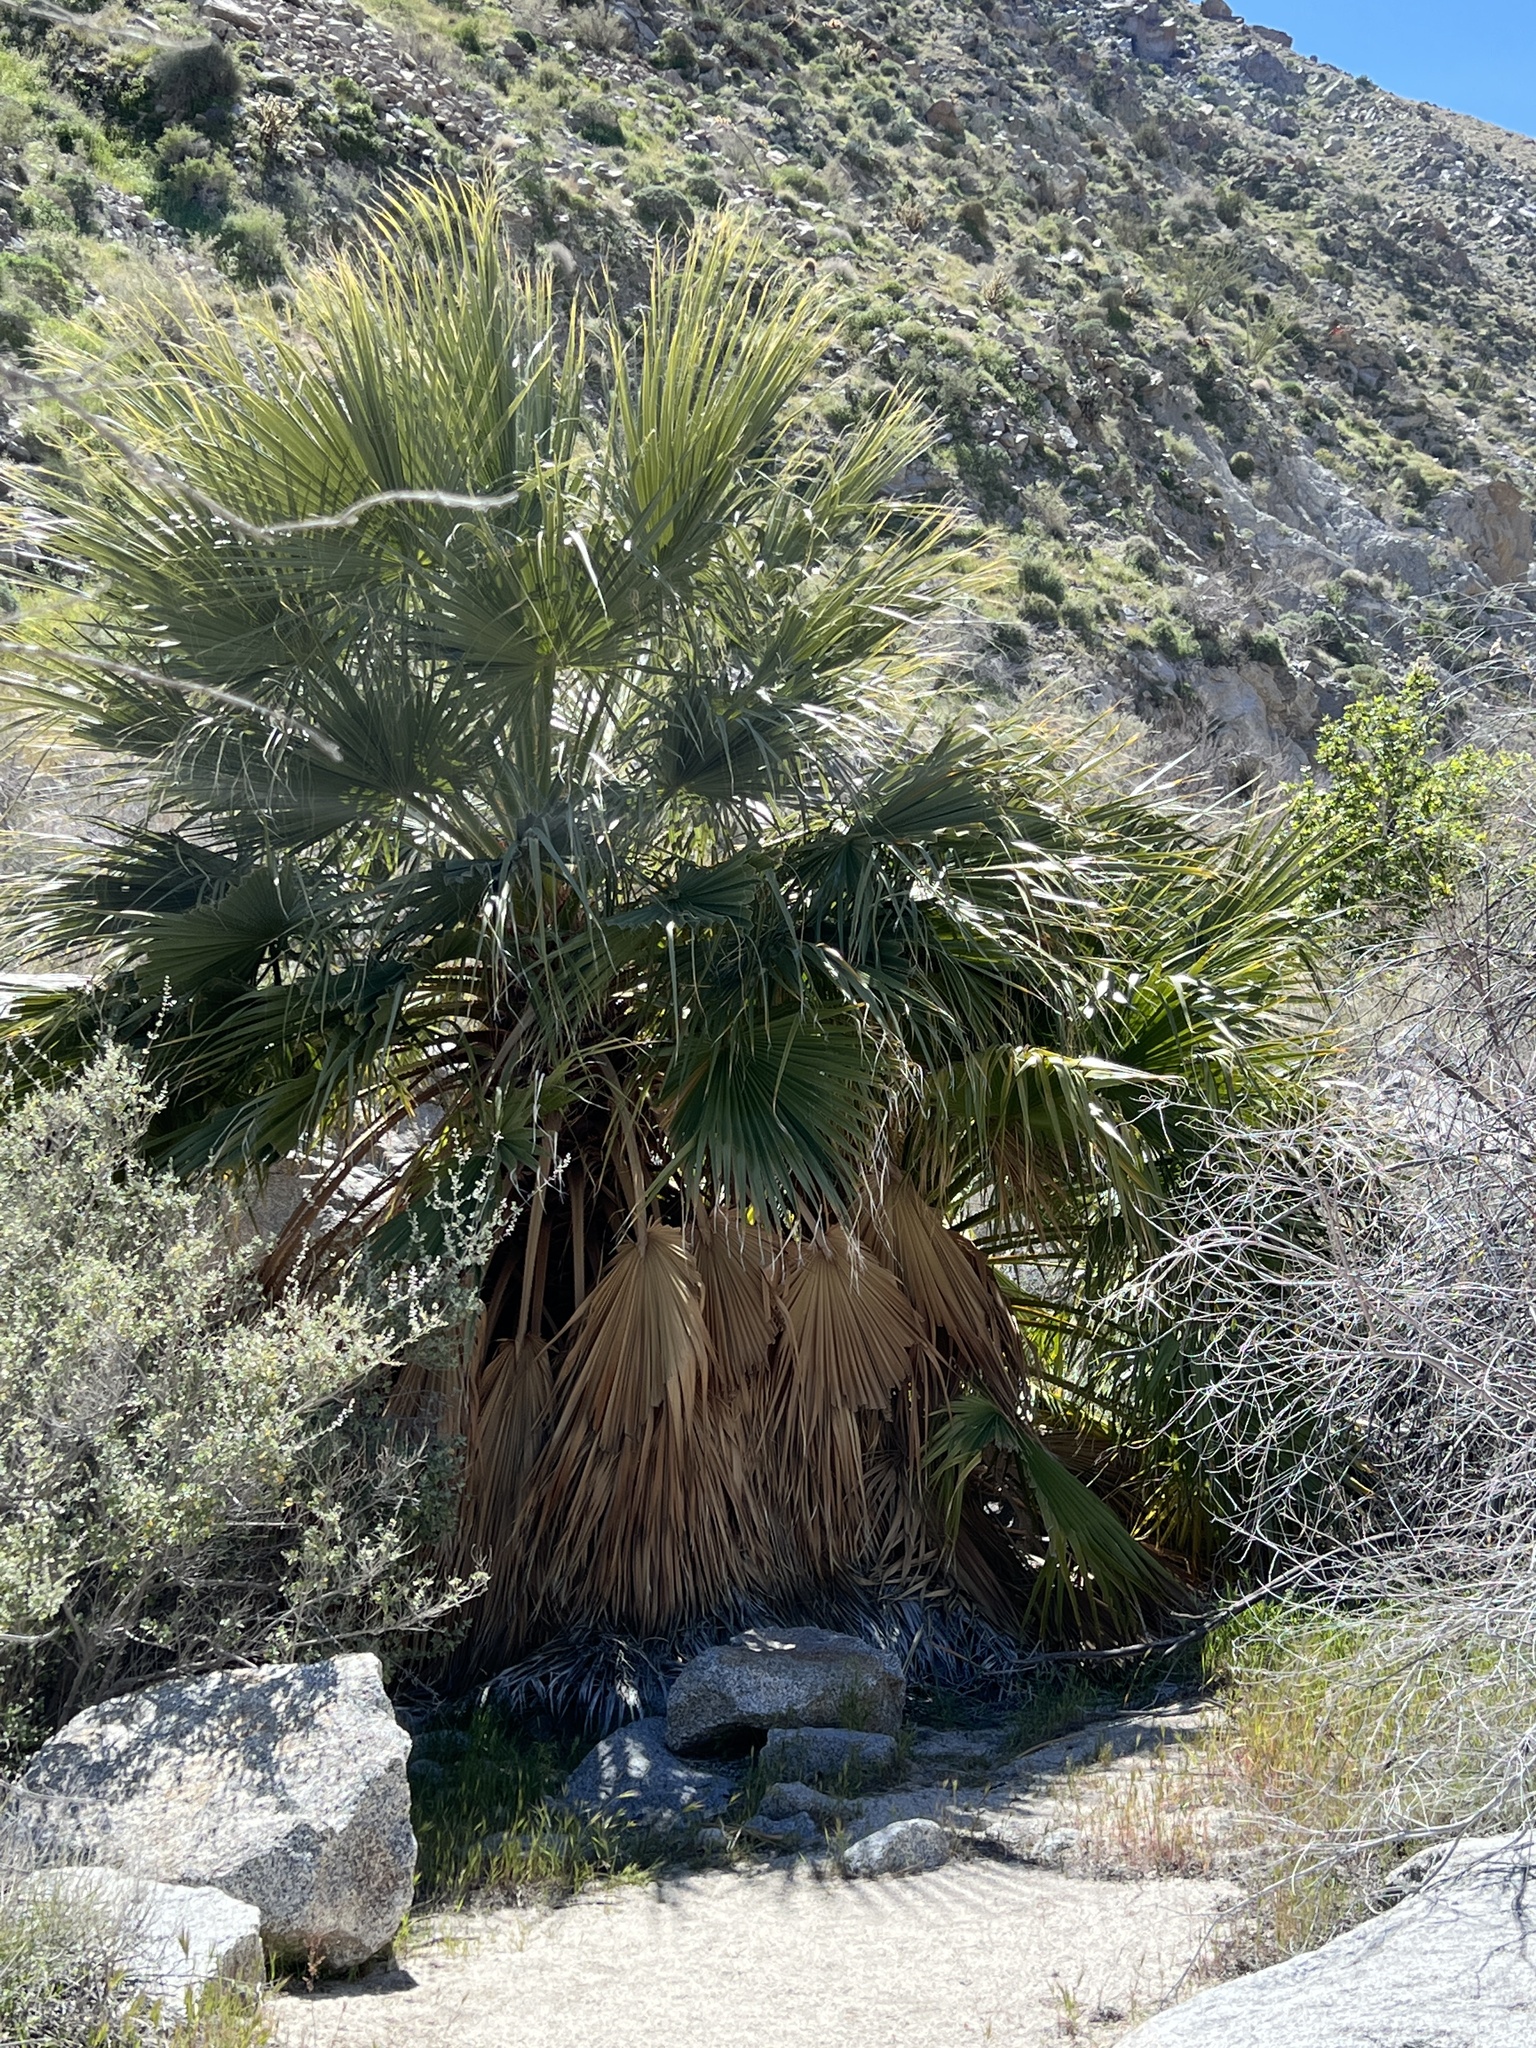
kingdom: Plantae
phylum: Tracheophyta
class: Liliopsida
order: Arecales
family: Arecaceae
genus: Washingtonia
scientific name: Washingtonia filifera
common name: California fan palm
